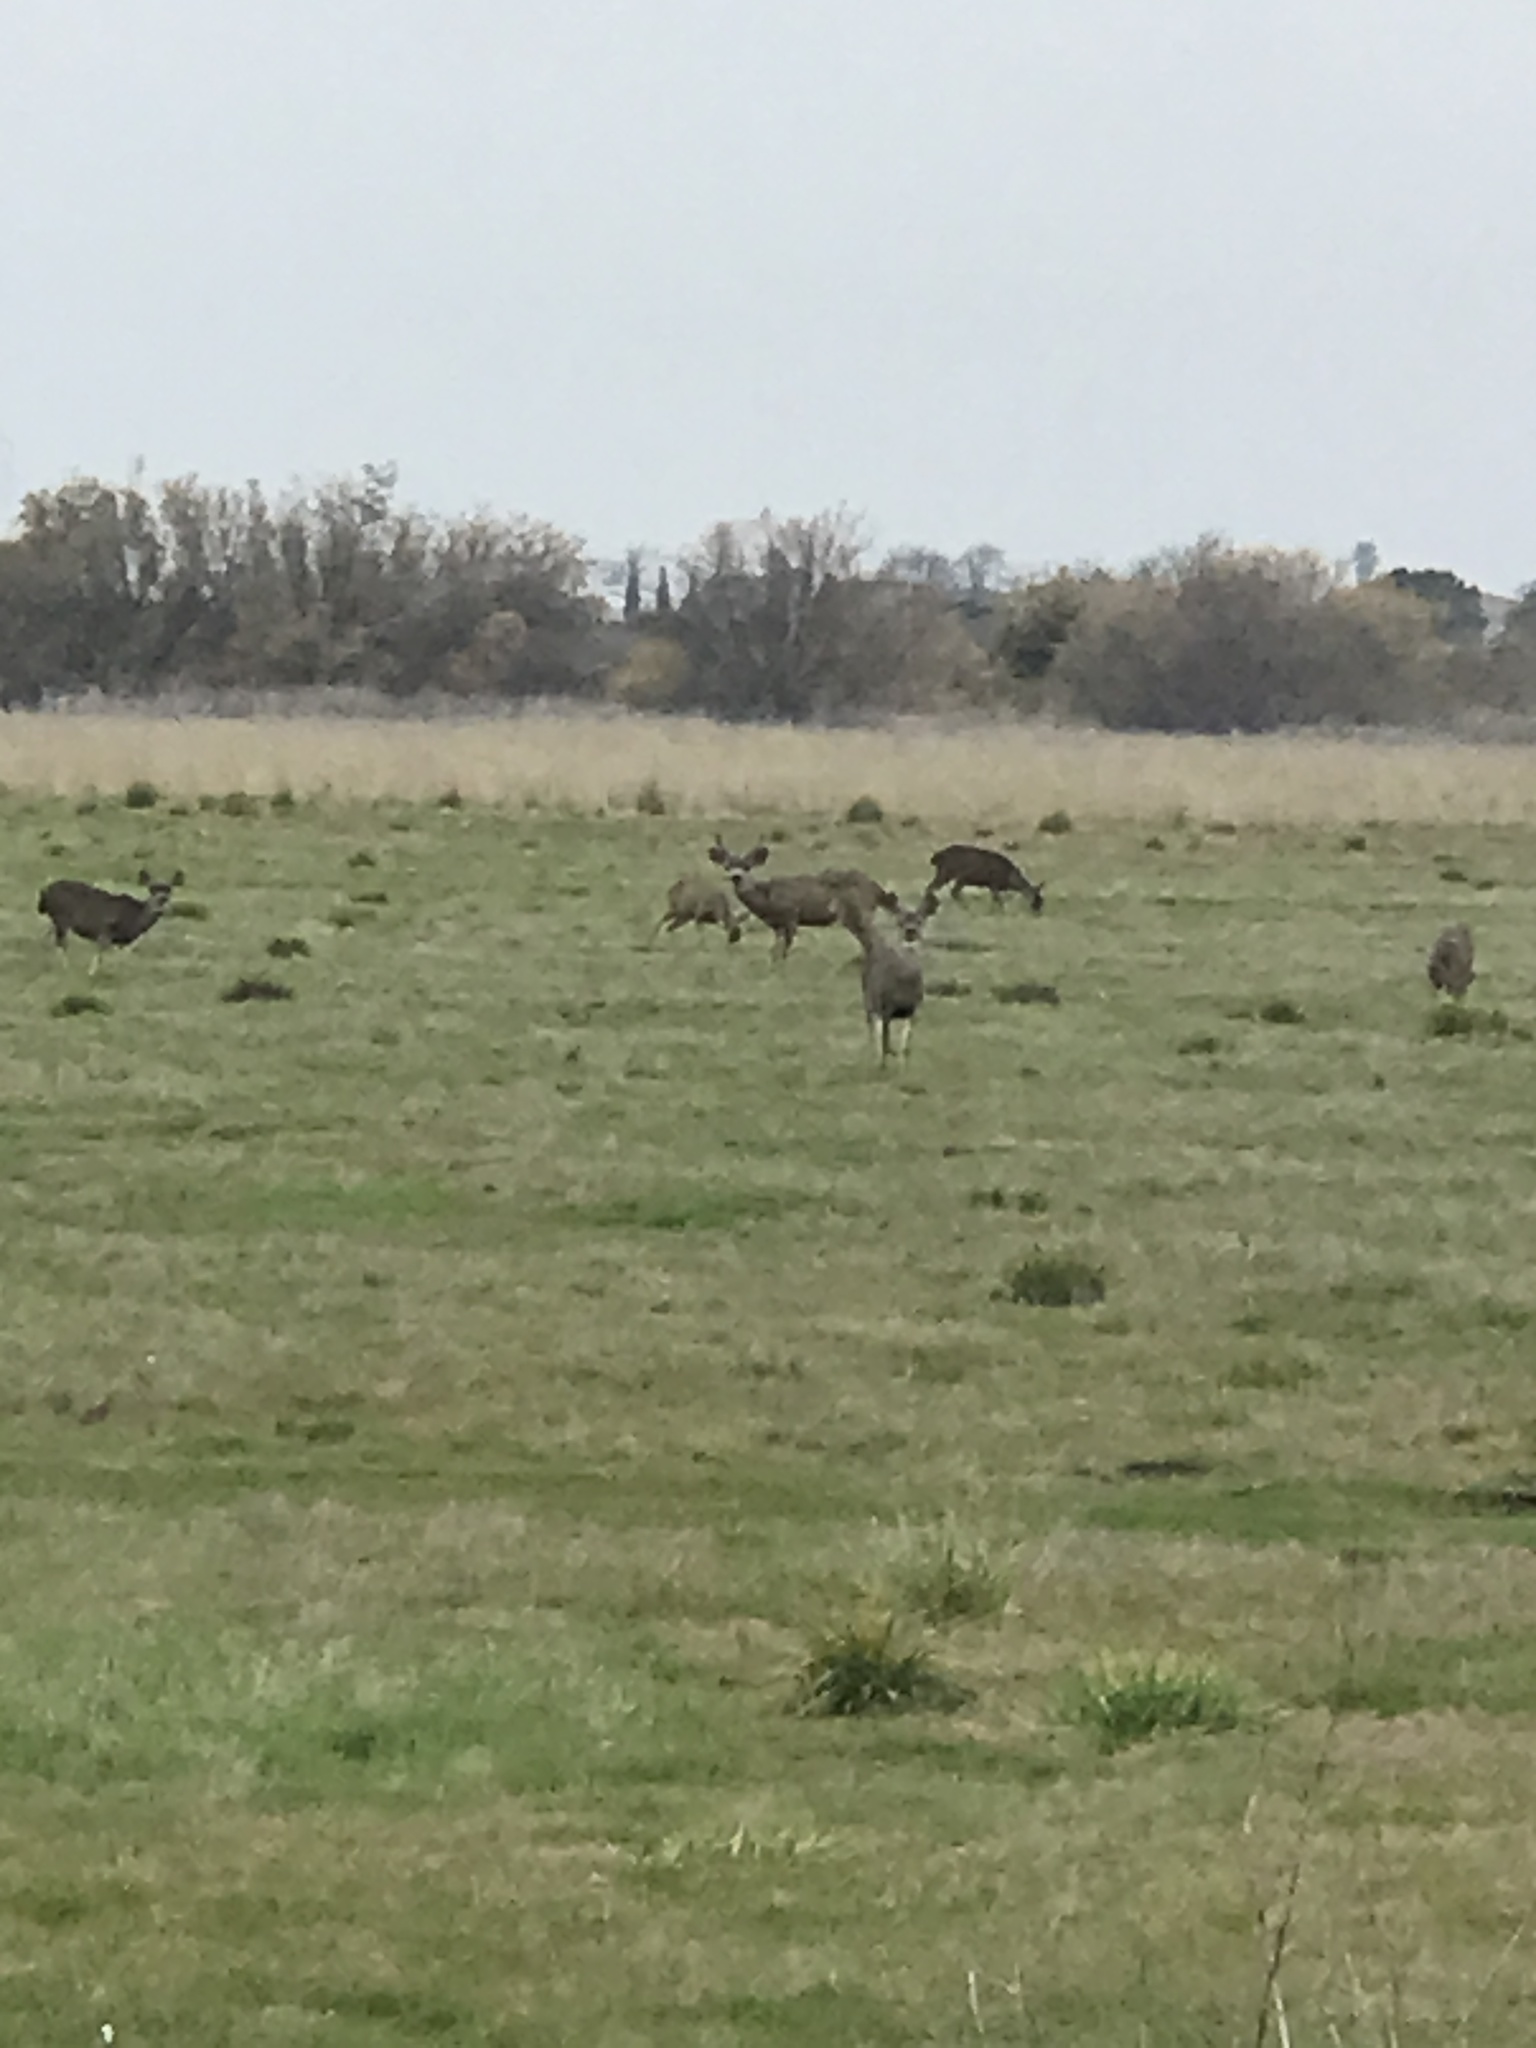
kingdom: Animalia
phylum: Chordata
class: Mammalia
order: Artiodactyla
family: Cervidae
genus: Odocoileus
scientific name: Odocoileus hemionus
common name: Mule deer
